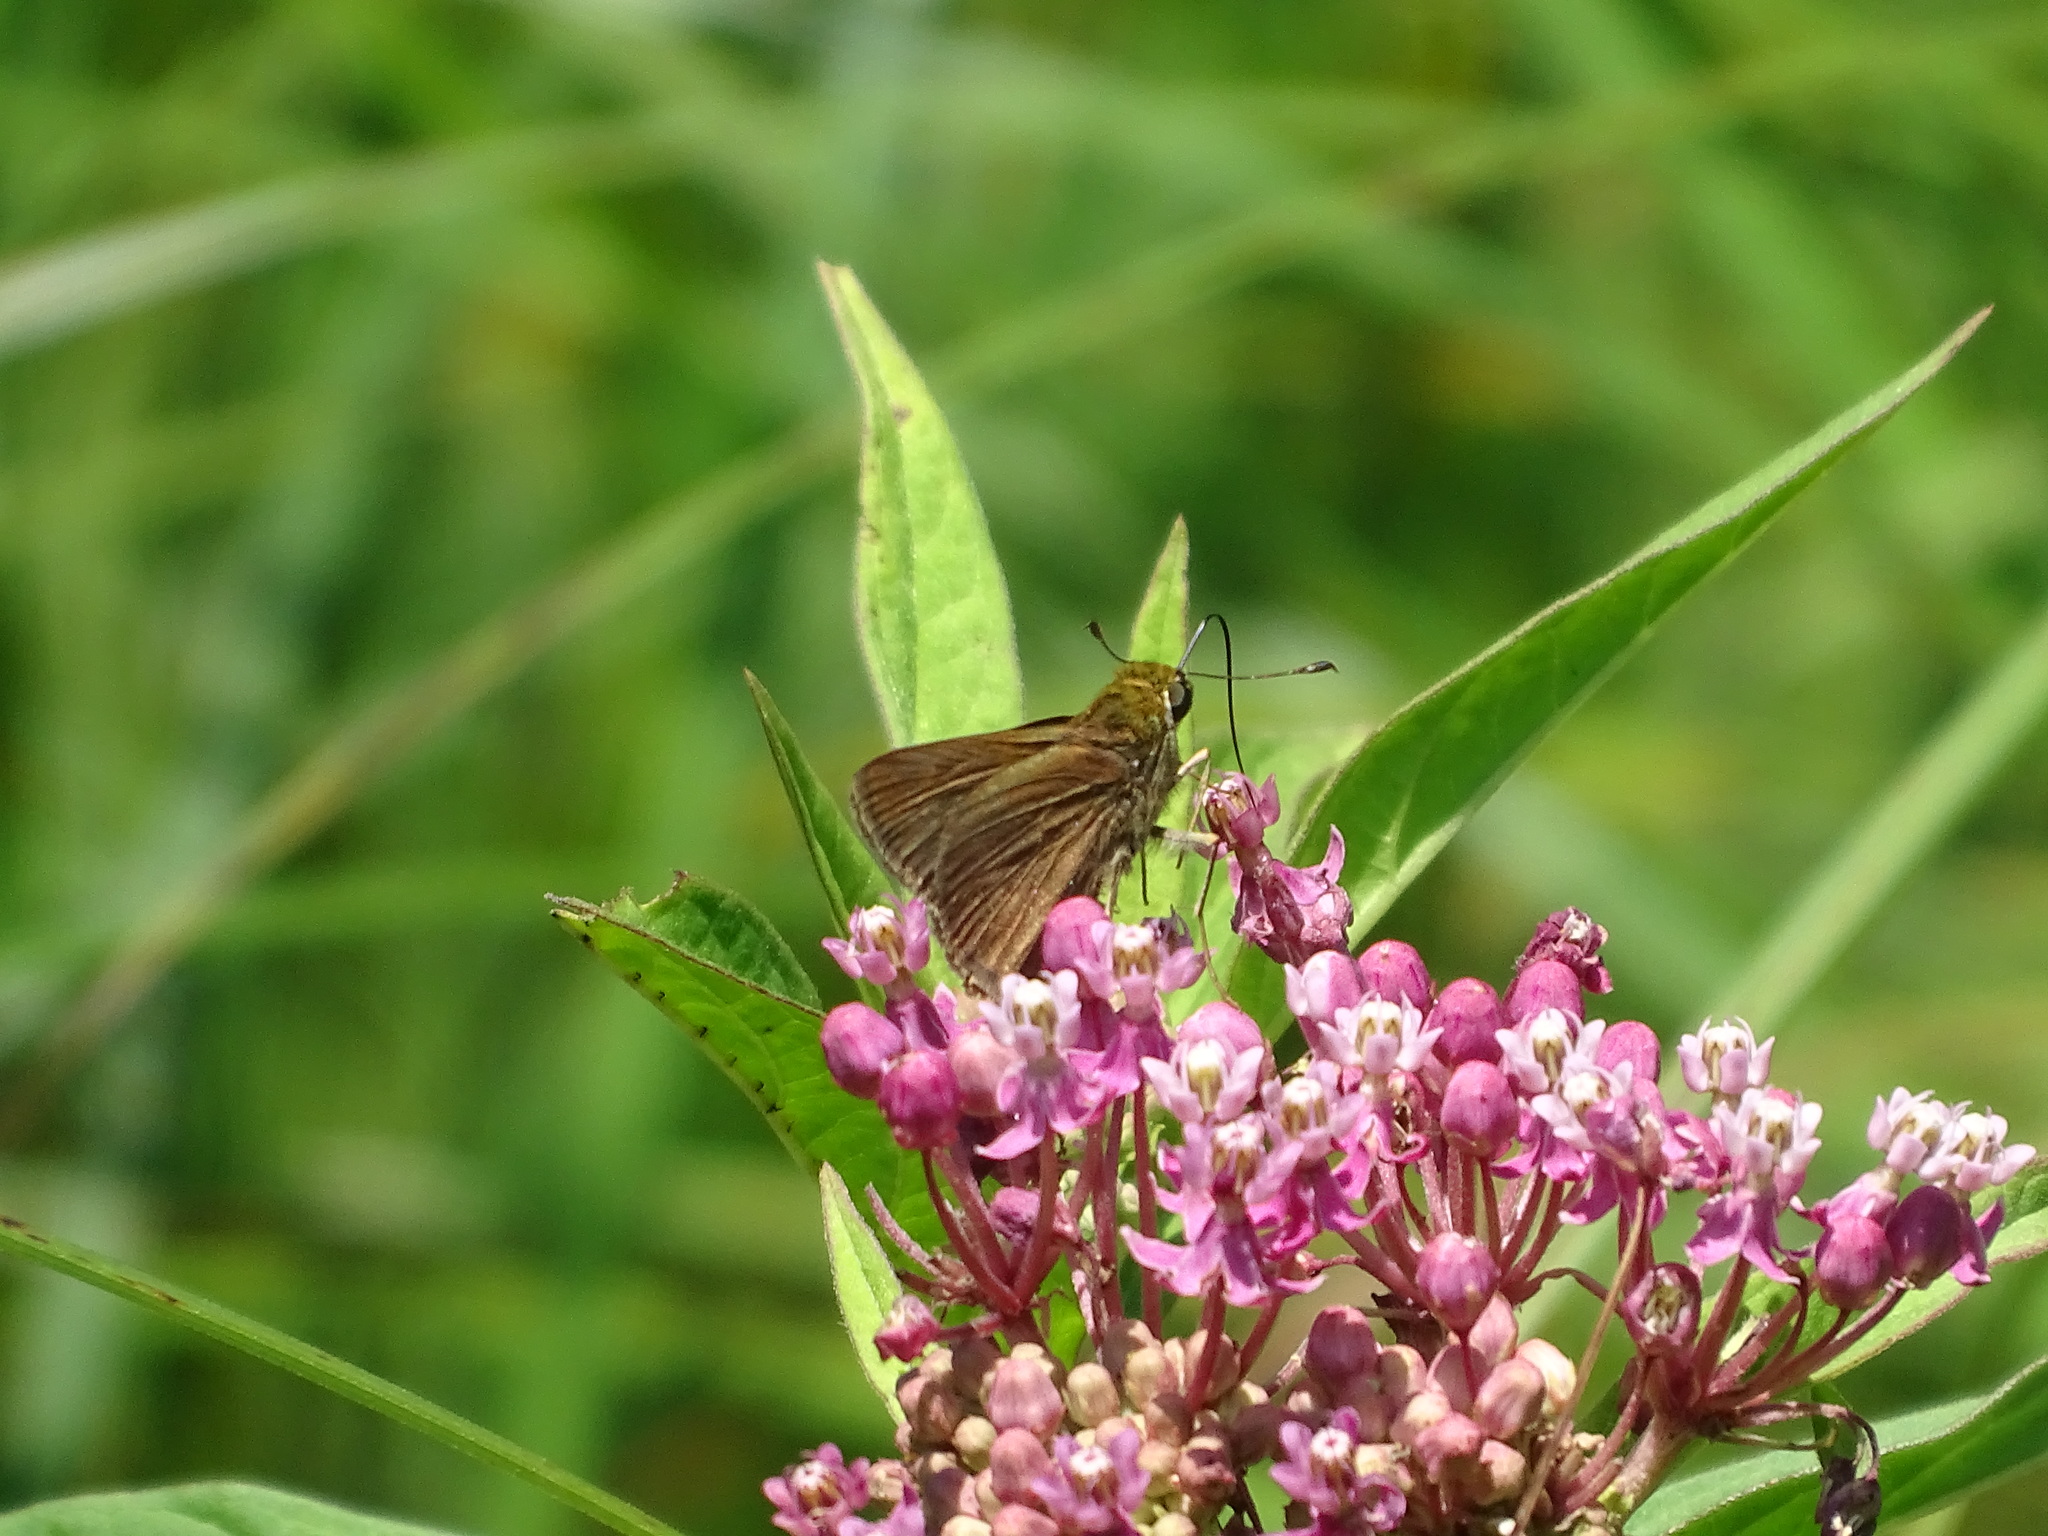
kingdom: Animalia
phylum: Arthropoda
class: Insecta
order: Lepidoptera
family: Hesperiidae
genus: Euphyes
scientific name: Euphyes vestris
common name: Dun skipper
